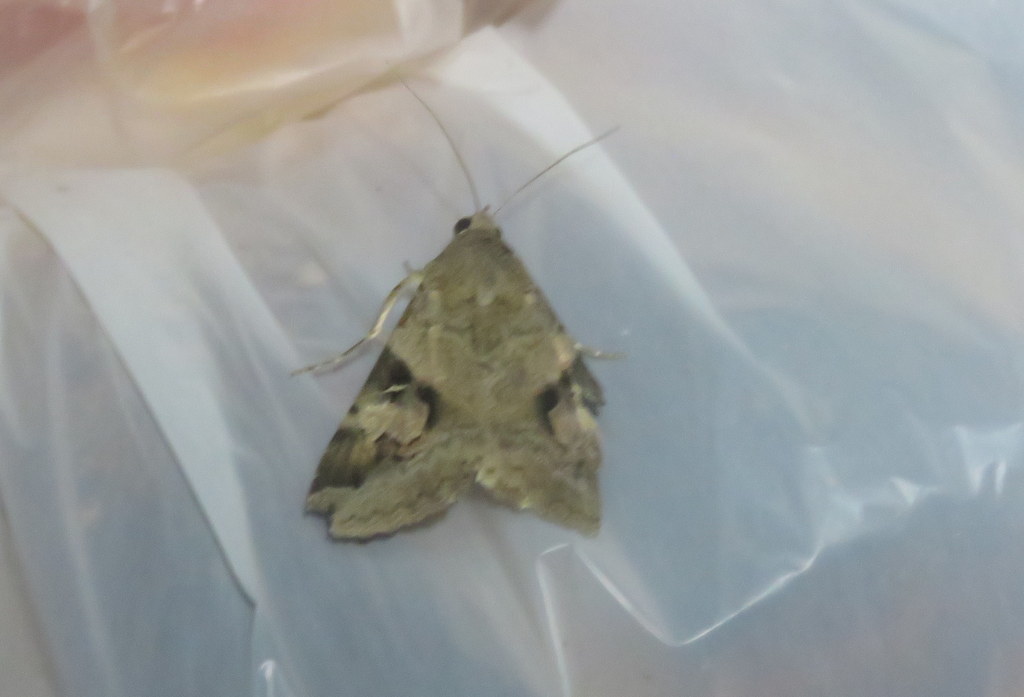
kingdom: Animalia
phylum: Arthropoda
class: Insecta
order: Lepidoptera
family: Erebidae
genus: Melipotis
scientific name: Melipotis ochrodes
